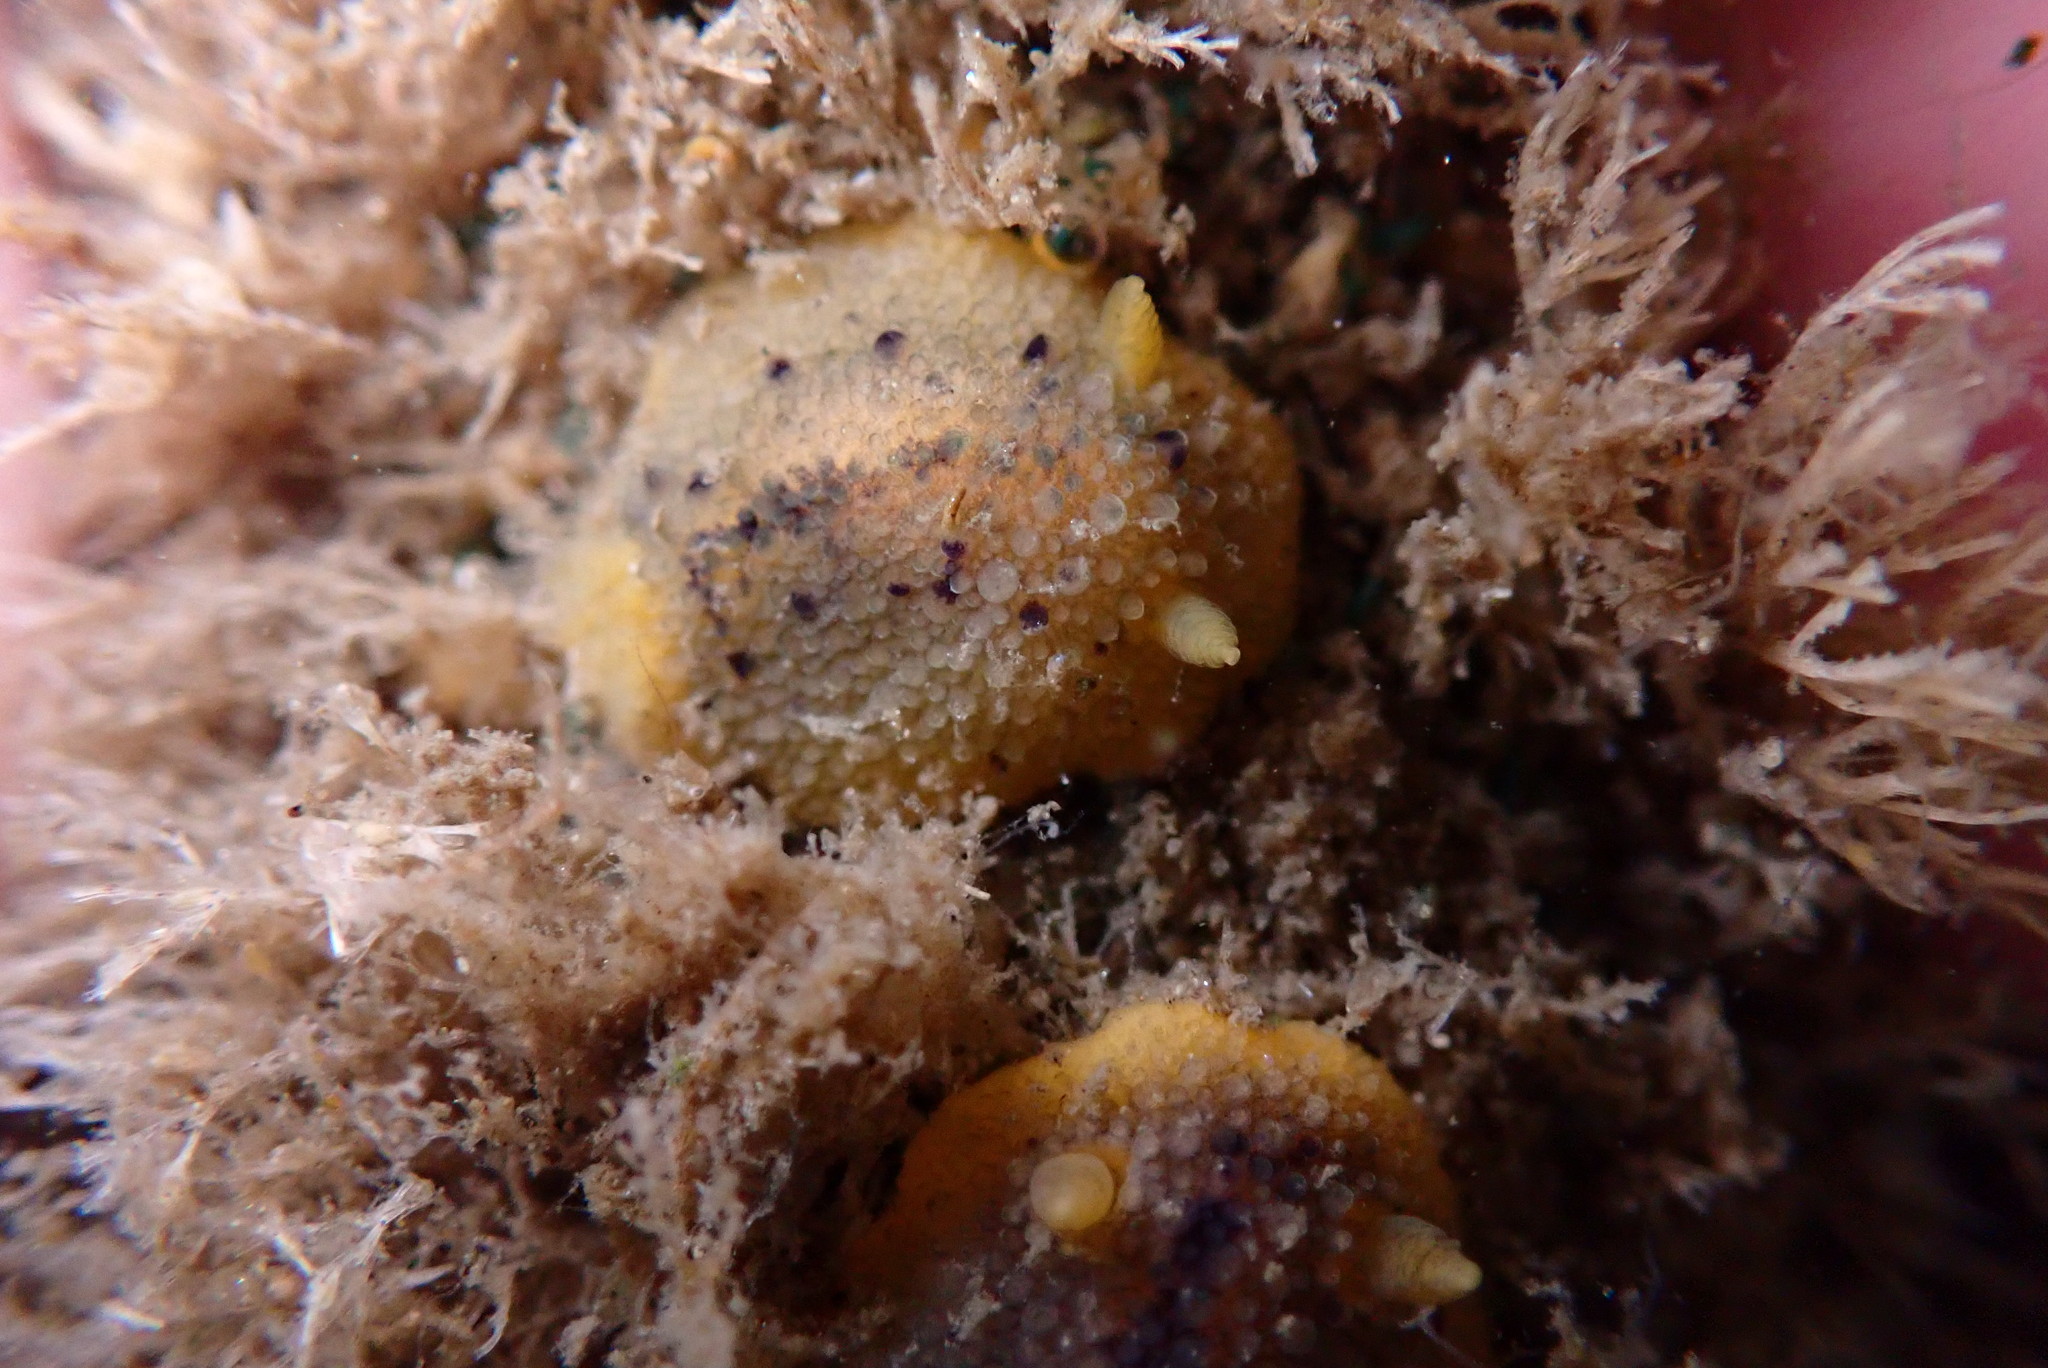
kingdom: Animalia
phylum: Mollusca
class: Gastropoda
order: Nudibranchia
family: Dorididae
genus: Doris
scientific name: Doris montereyensis
